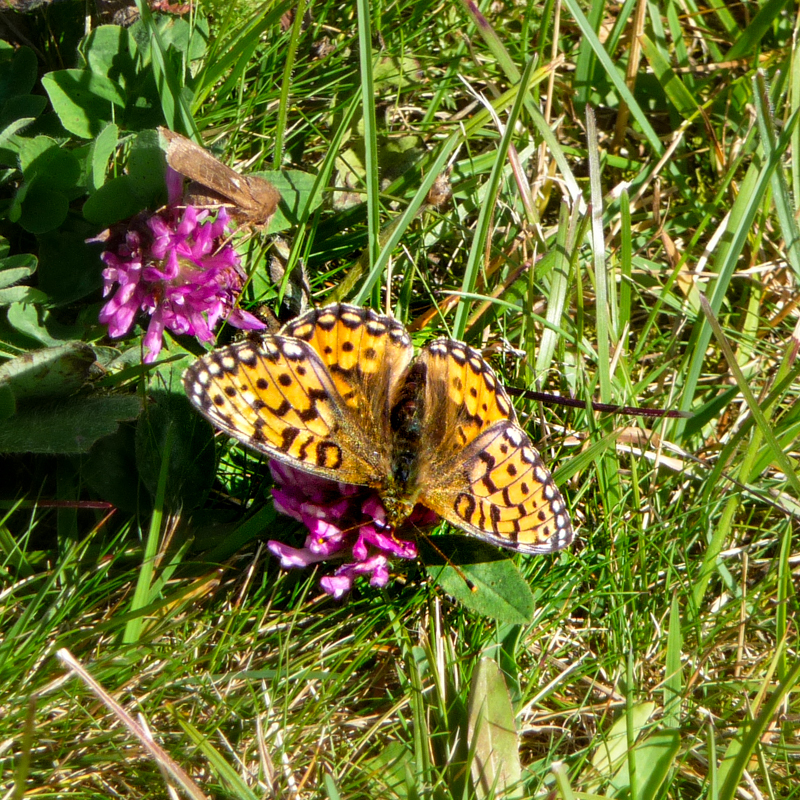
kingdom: Animalia
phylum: Arthropoda
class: Insecta
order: Lepidoptera
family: Nymphalidae
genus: Speyeria
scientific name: Speyeria aglaja
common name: Dark green fritillary
